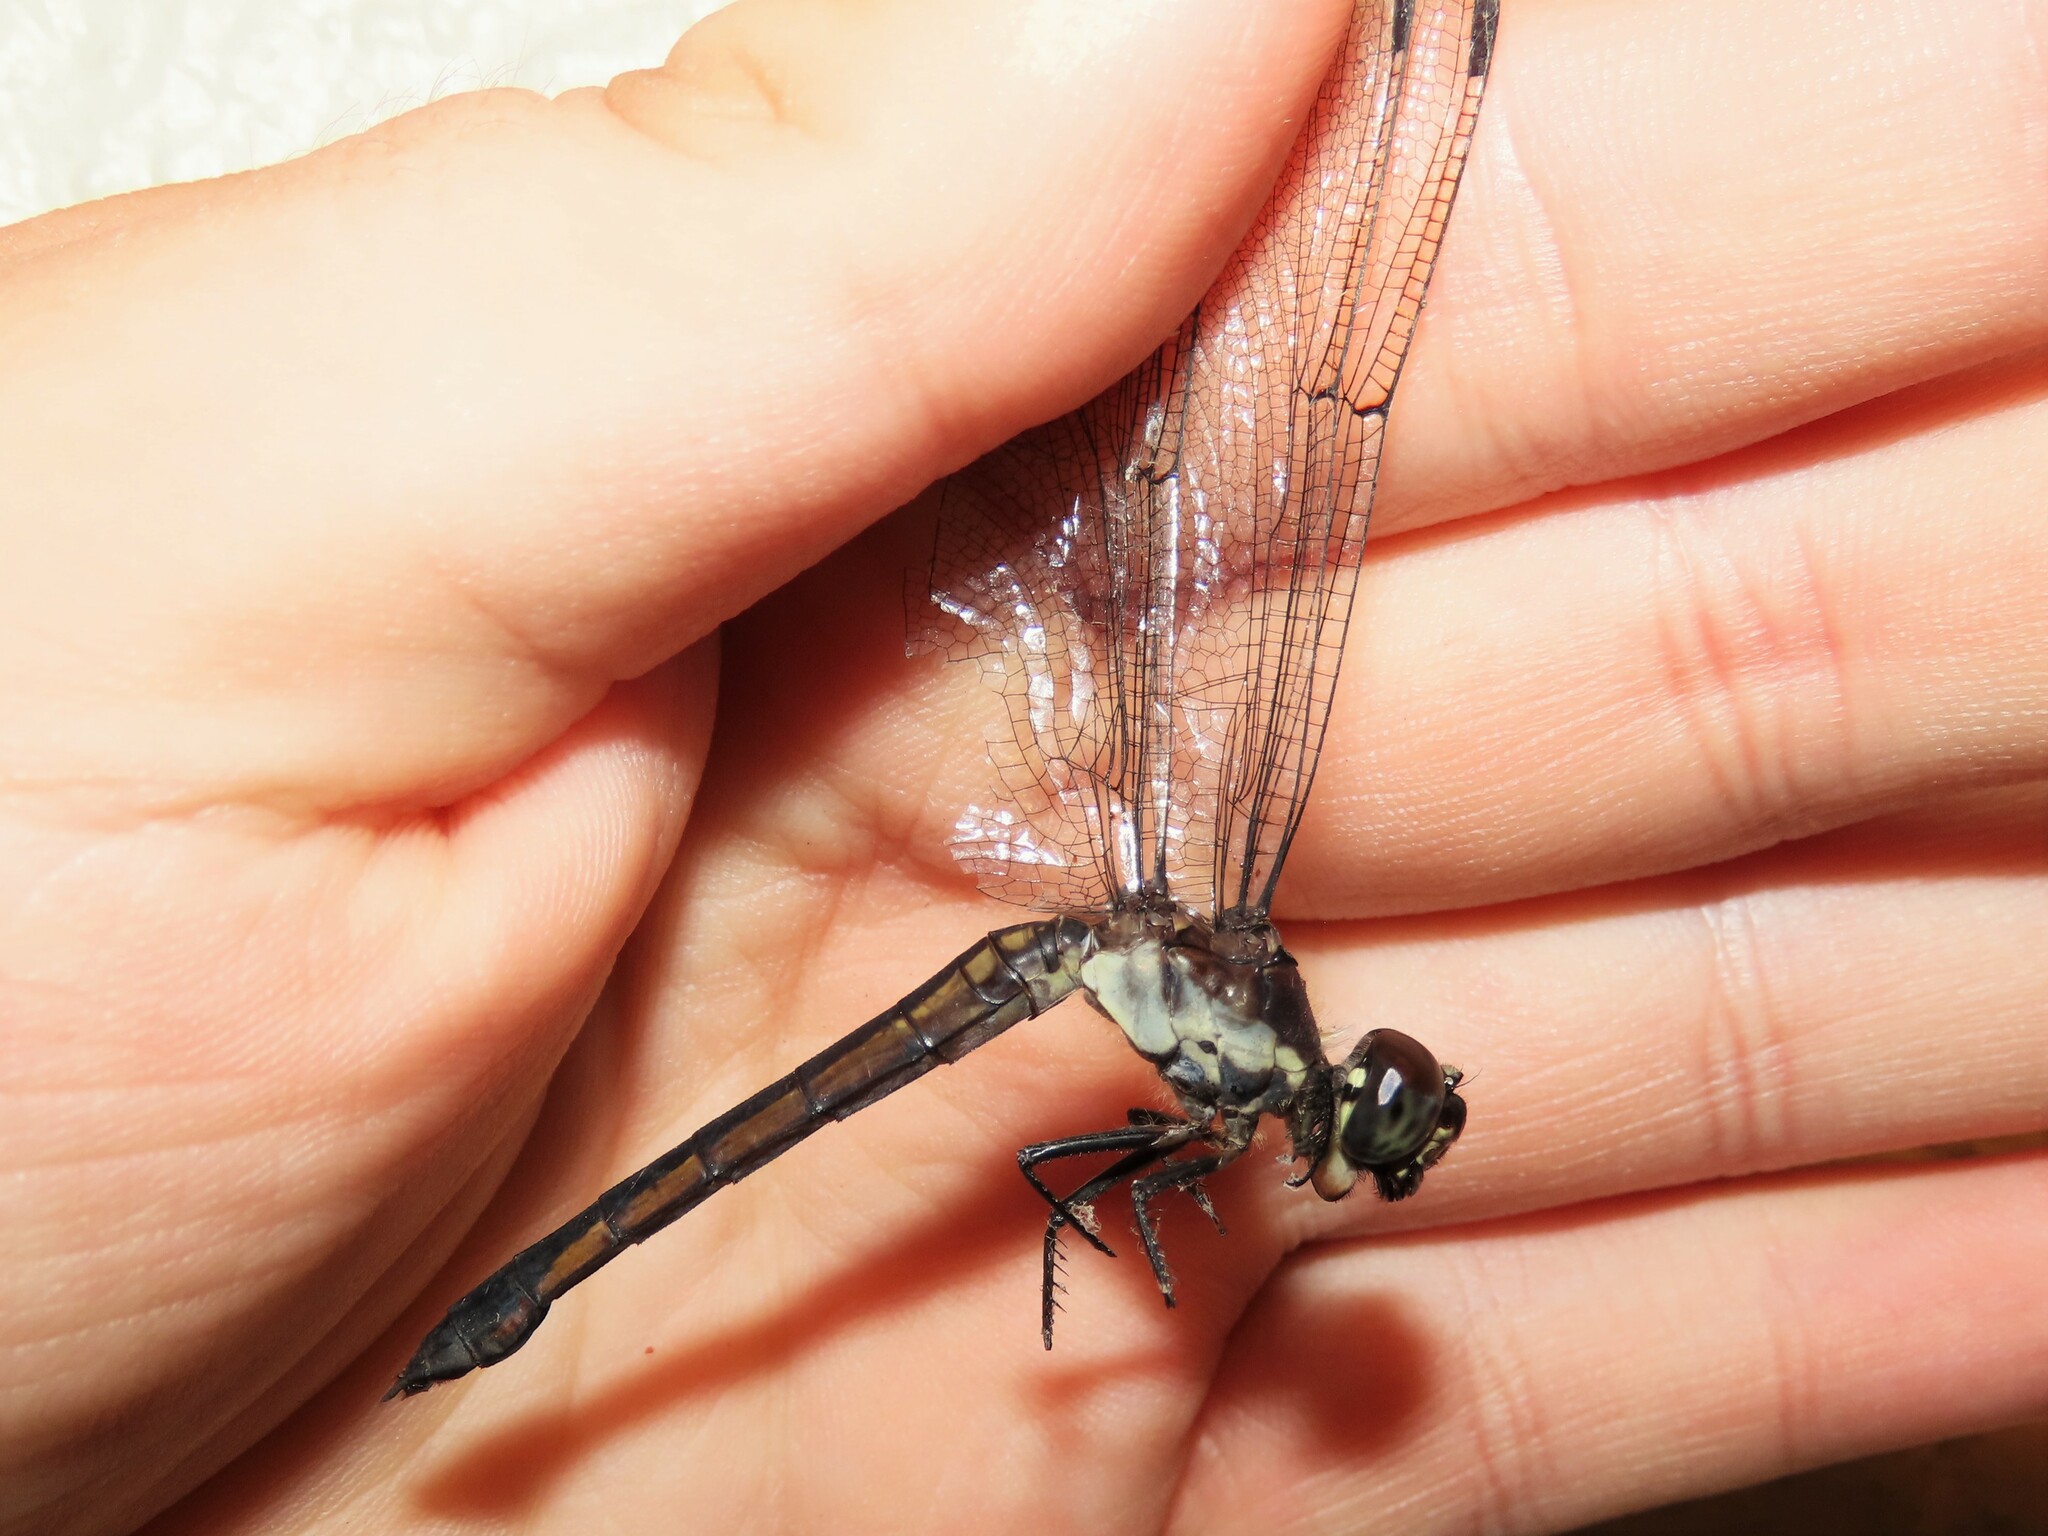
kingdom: Animalia
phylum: Arthropoda
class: Insecta
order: Odonata
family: Libellulidae
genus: Libellula
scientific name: Libellula incesta
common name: Slaty skimmer
